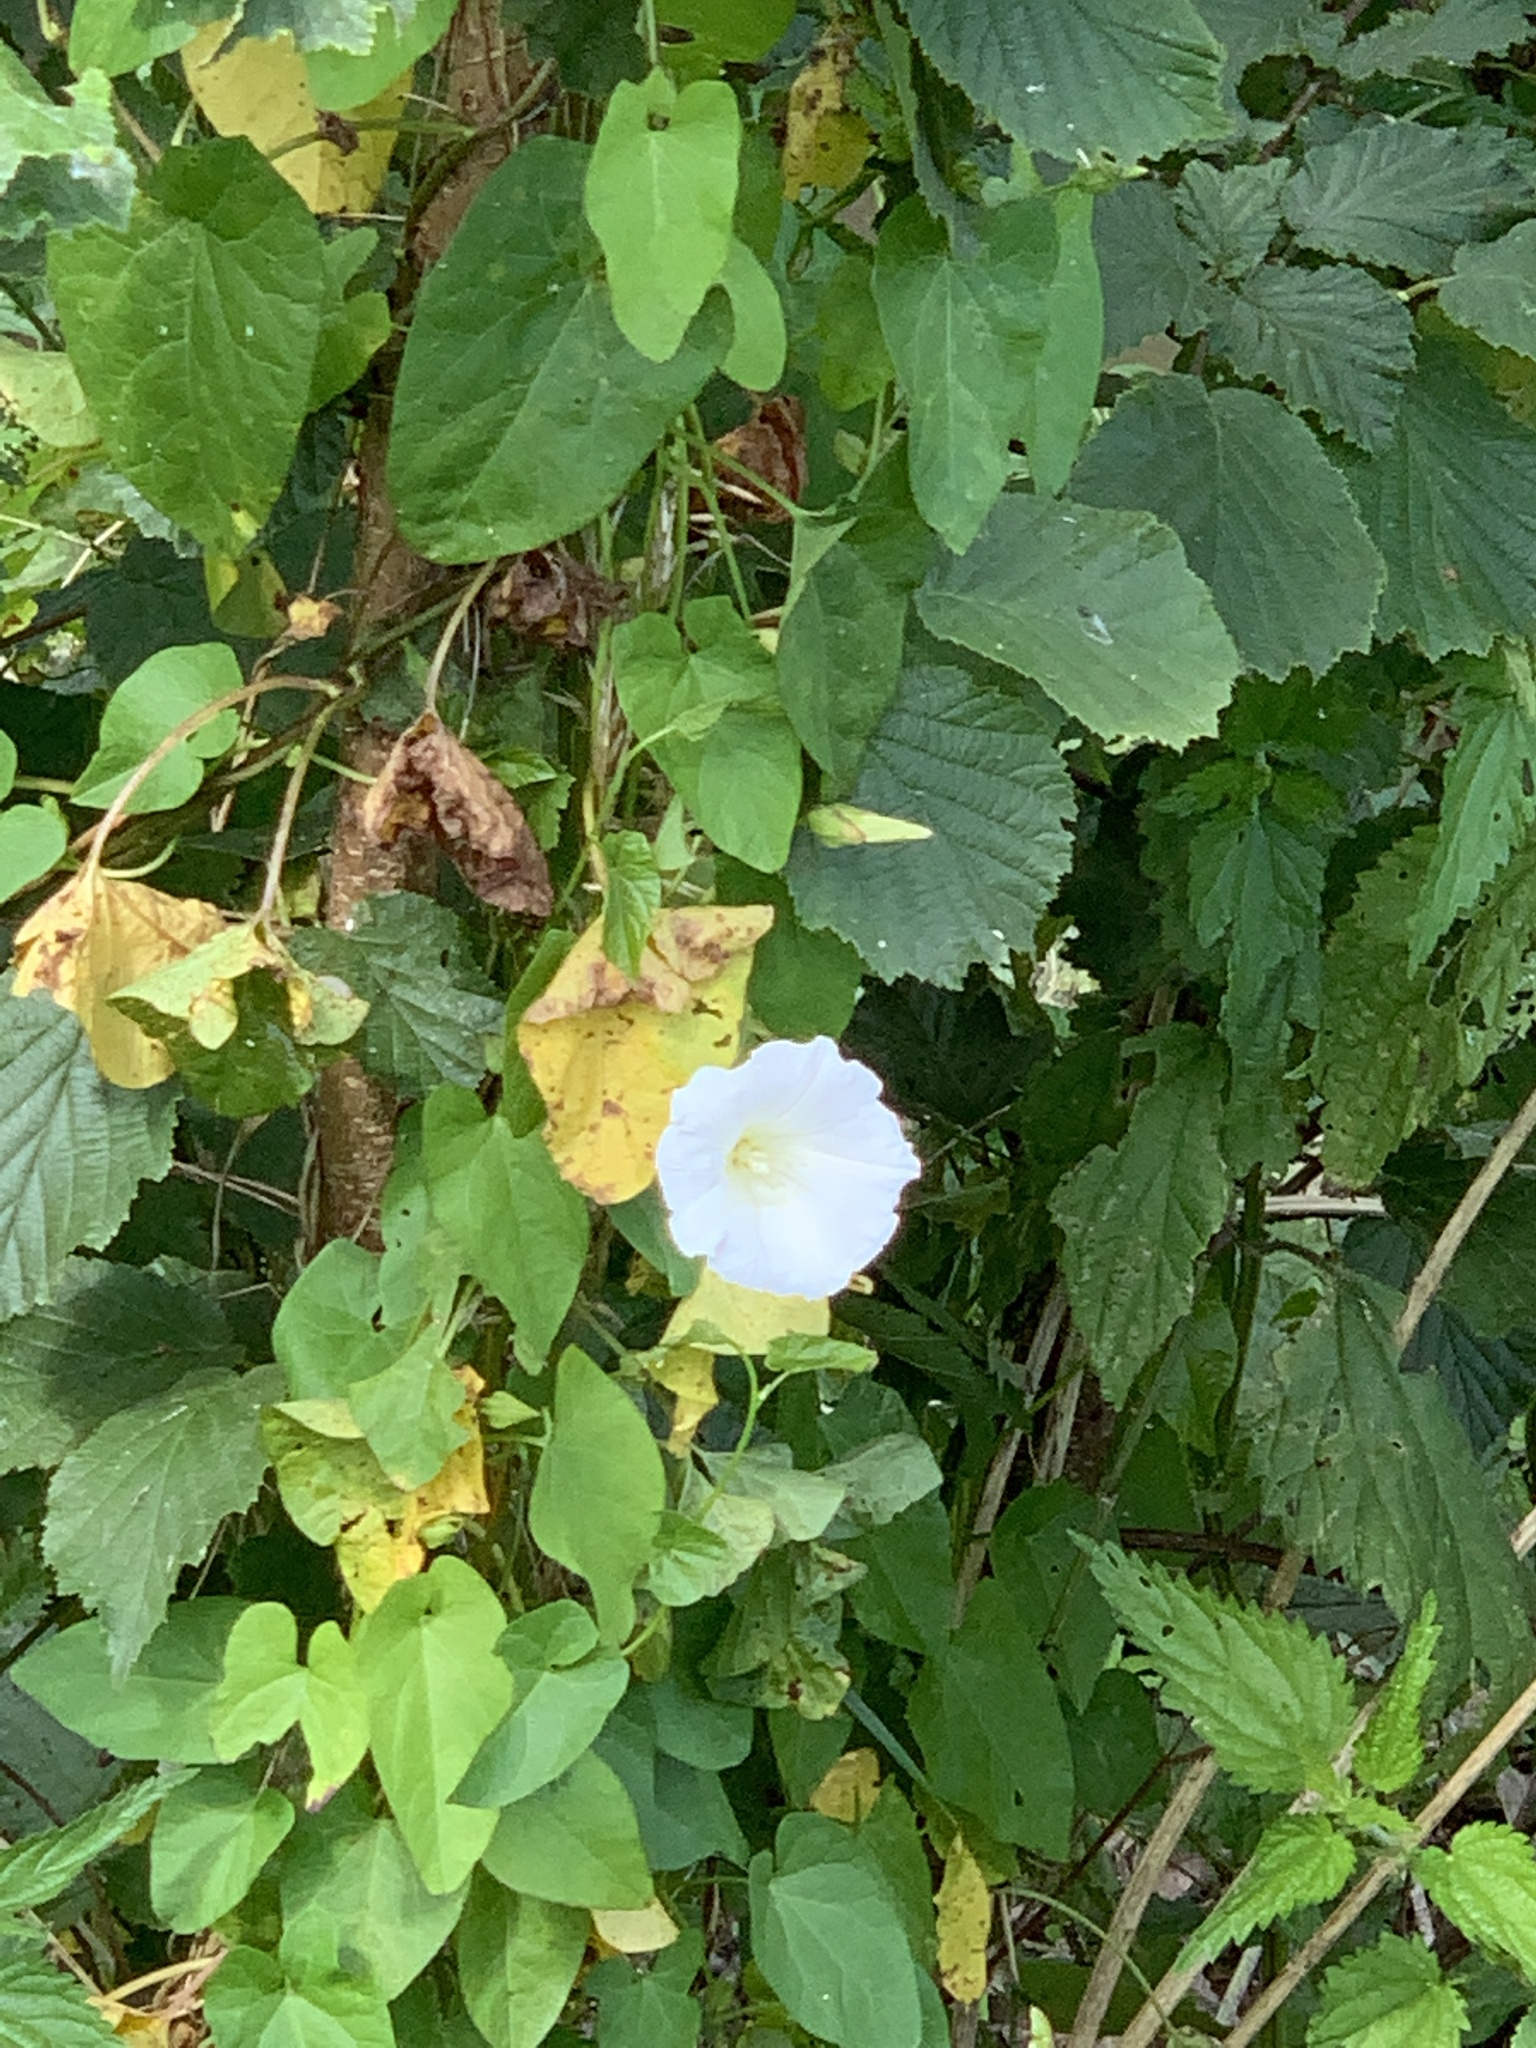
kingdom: Plantae
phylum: Tracheophyta
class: Magnoliopsida
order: Solanales
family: Convolvulaceae
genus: Calystegia
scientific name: Calystegia sepium
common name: Hedge bindweed
